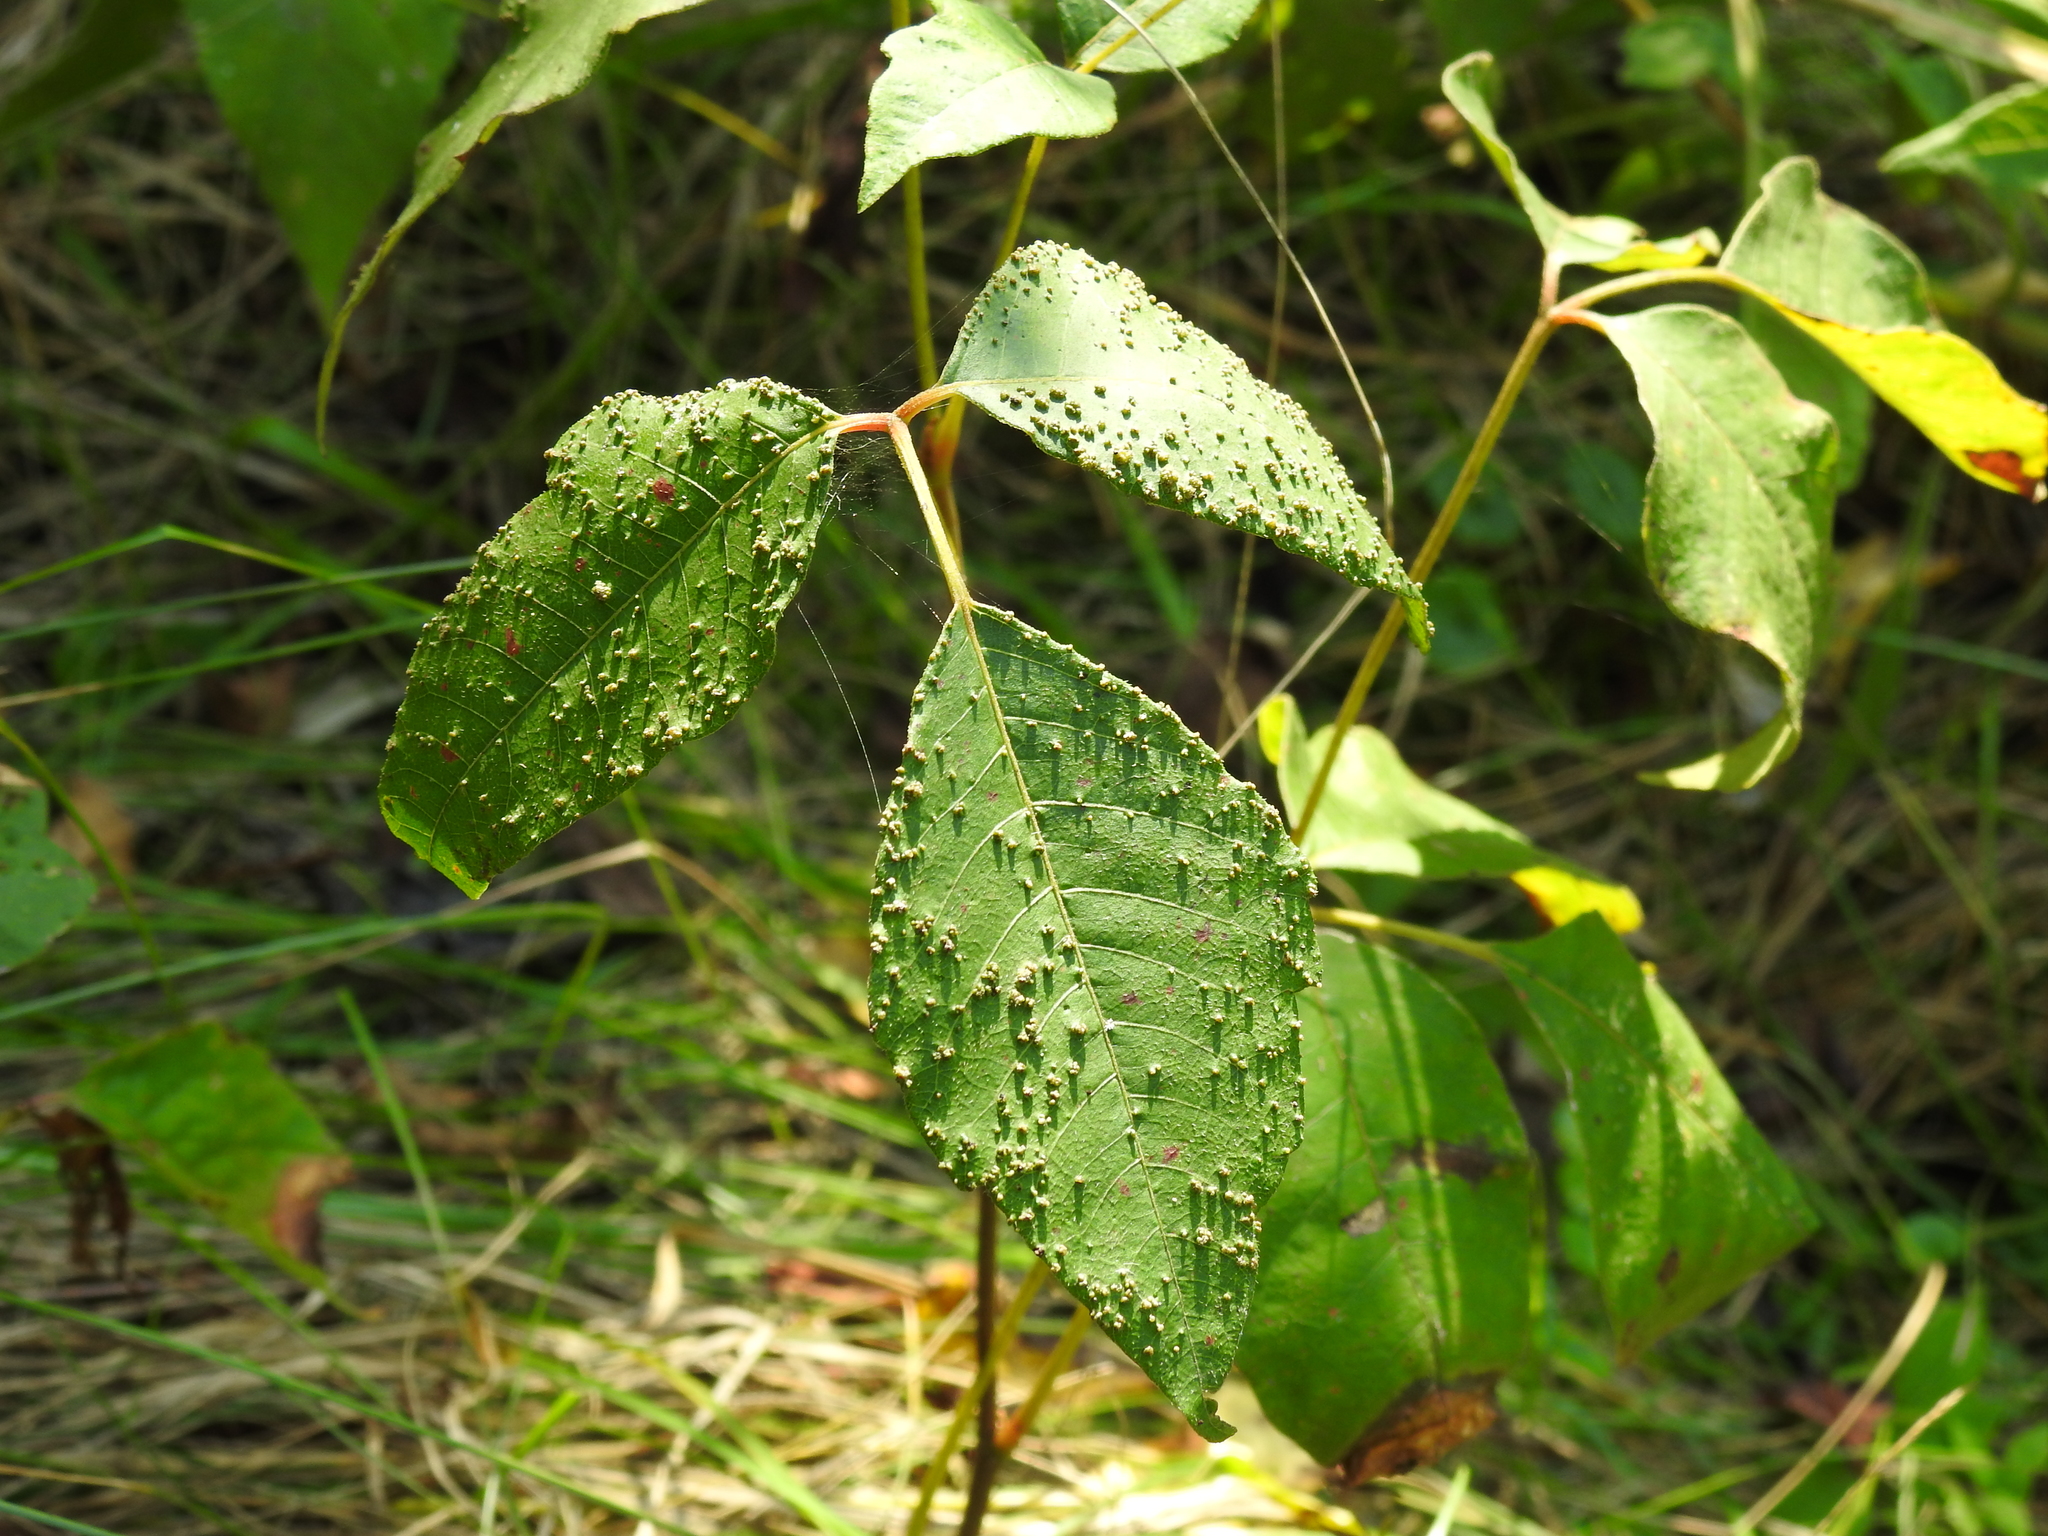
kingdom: Animalia
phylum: Arthropoda
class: Arachnida
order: Trombidiformes
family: Eriophyidae
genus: Aculops
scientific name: Aculops
